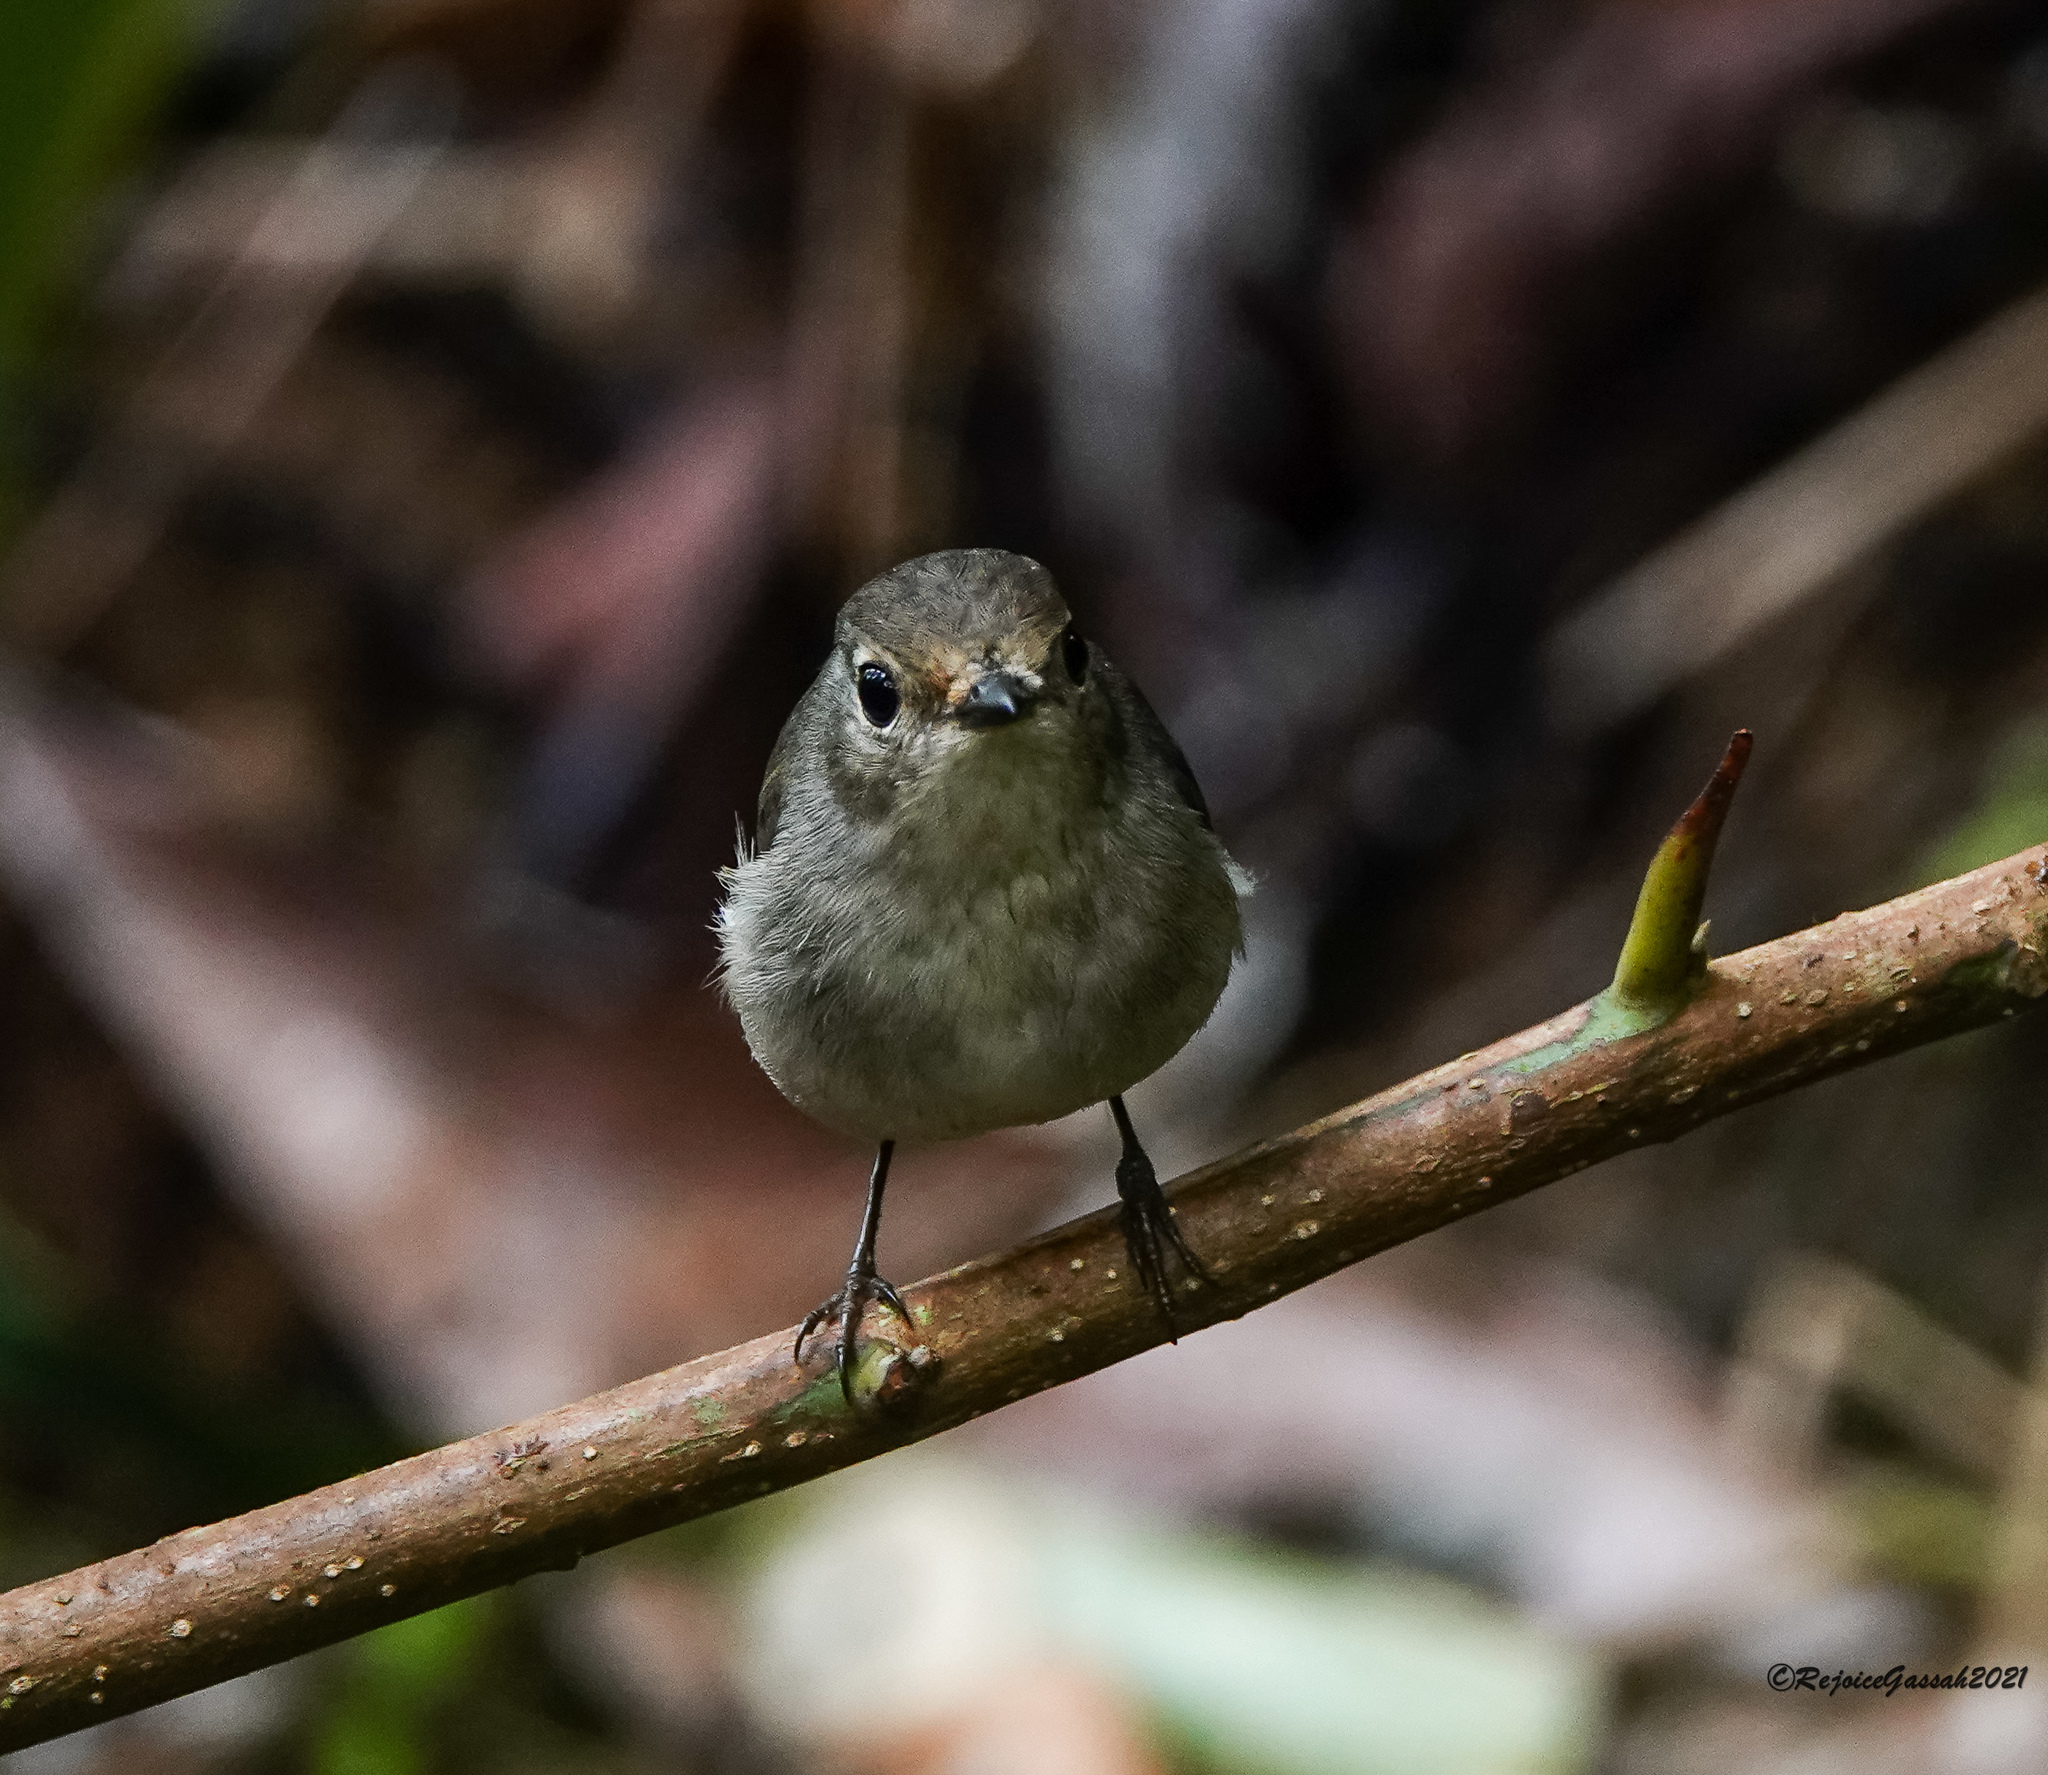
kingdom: Animalia
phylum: Chordata
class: Aves
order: Passeriformes
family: Muscicapidae
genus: Ficedula
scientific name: Ficedula westermanni
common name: Little pied flycatcher
